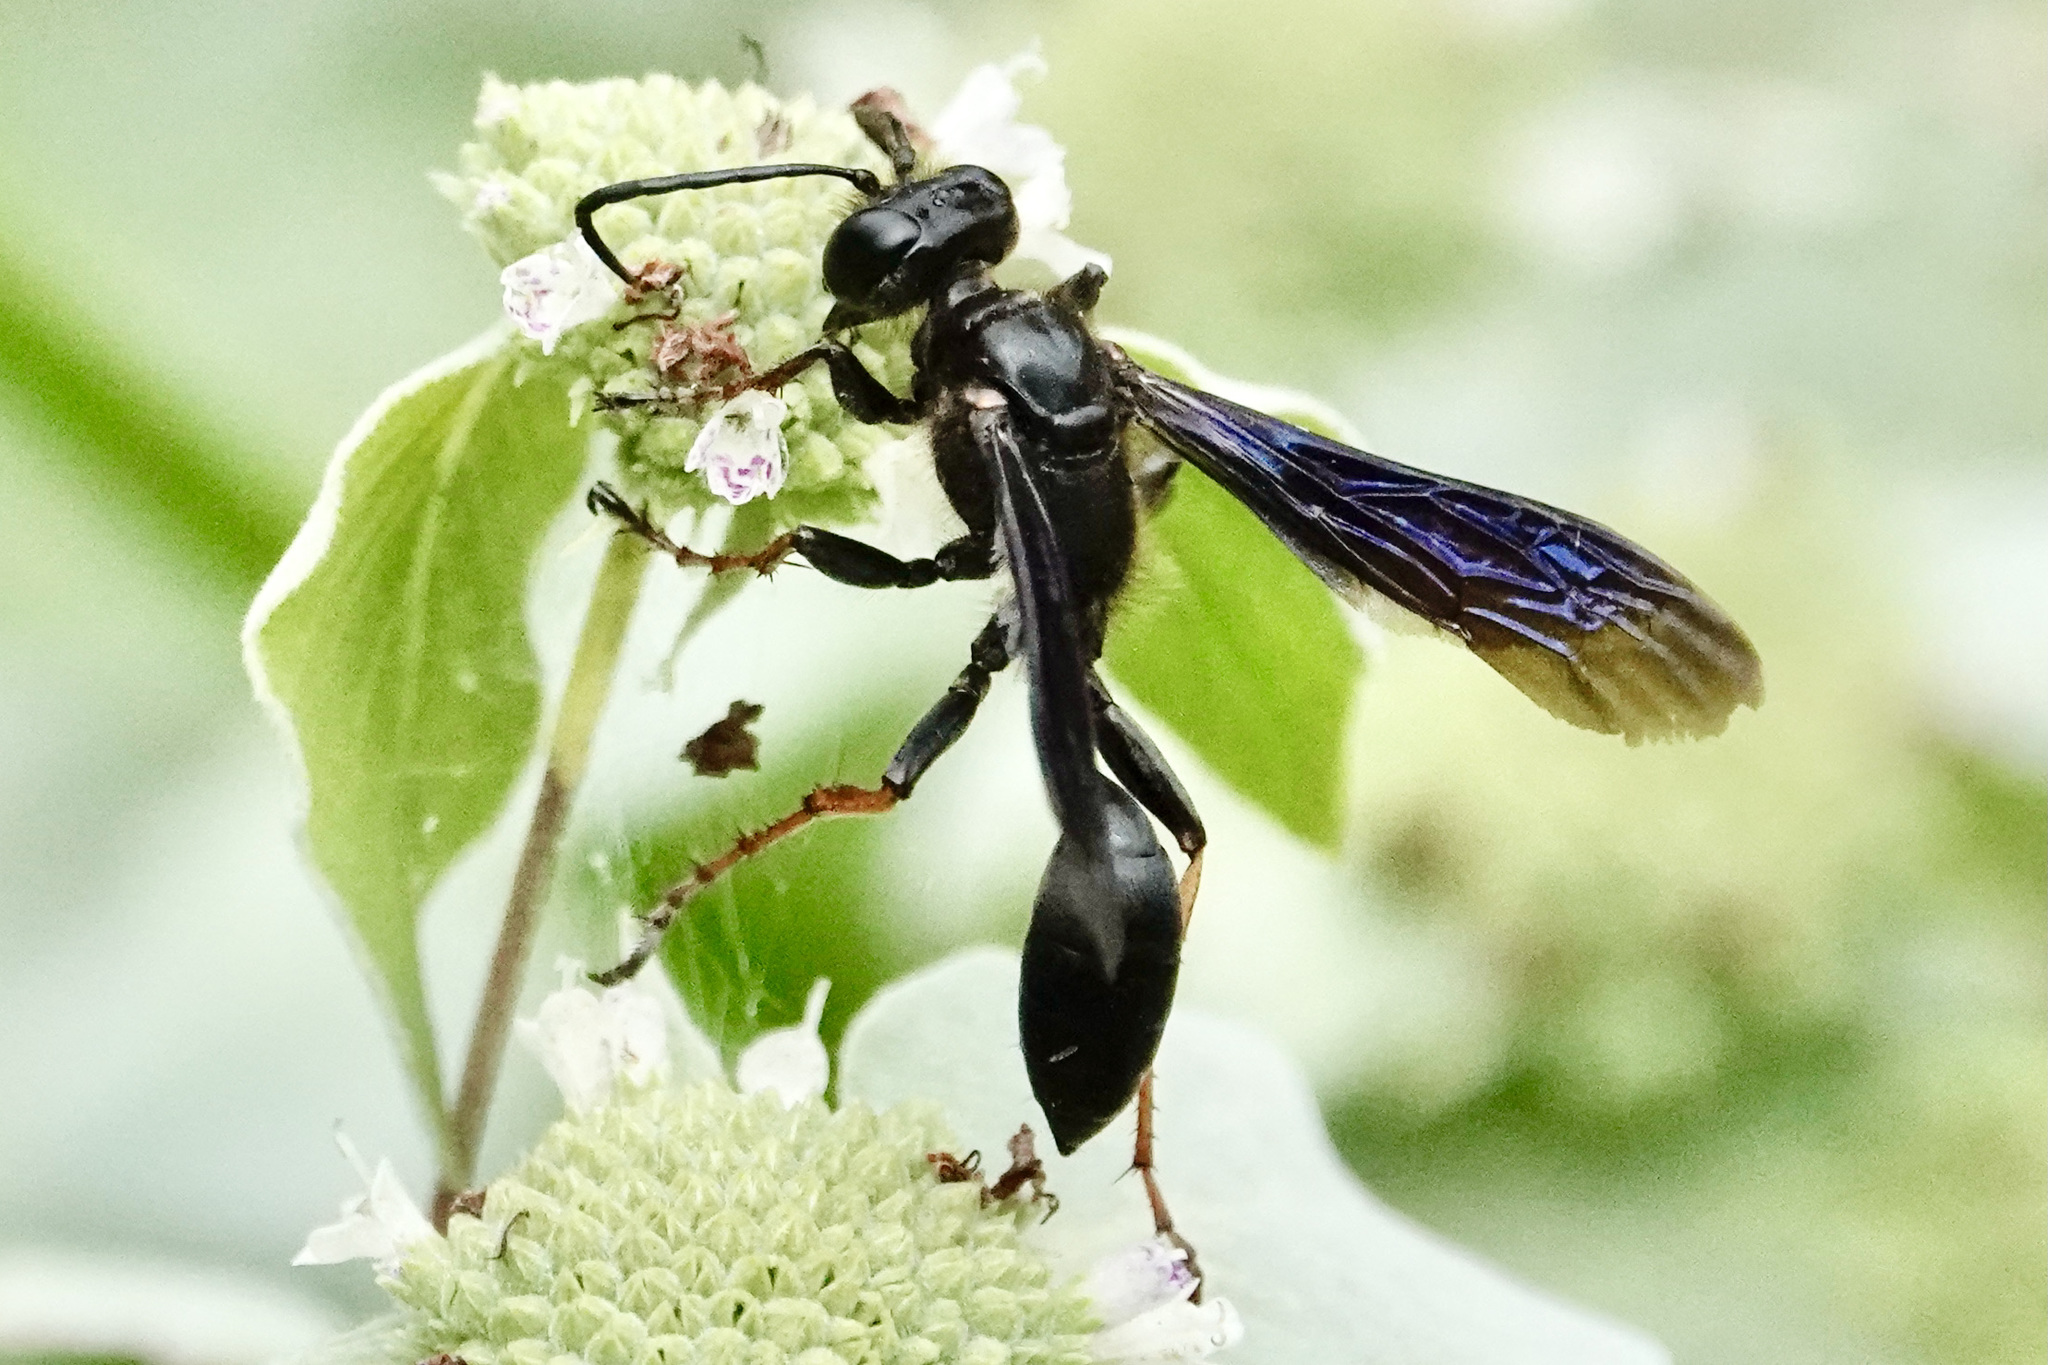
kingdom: Animalia
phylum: Arthropoda
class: Insecta
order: Hymenoptera
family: Sphecidae
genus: Isodontia
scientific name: Isodontia auripes
